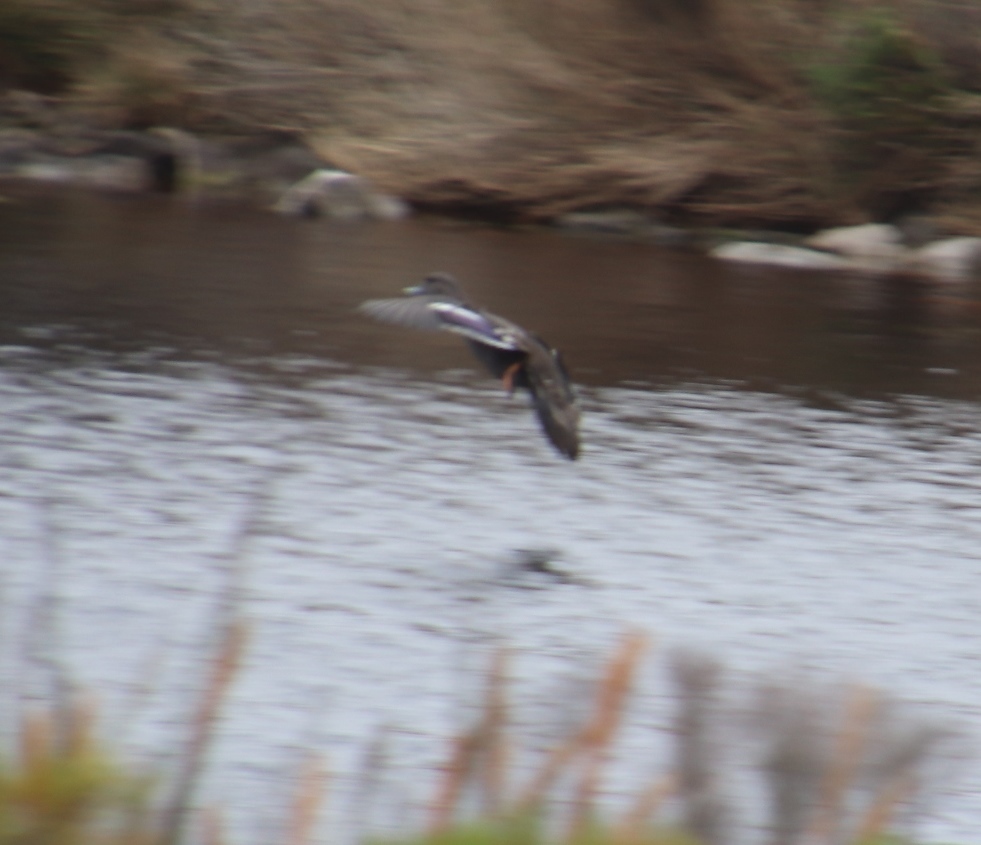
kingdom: Animalia
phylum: Chordata
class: Aves
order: Anseriformes
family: Anatidae
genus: Anas
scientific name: Anas sparsa
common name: African black duck
